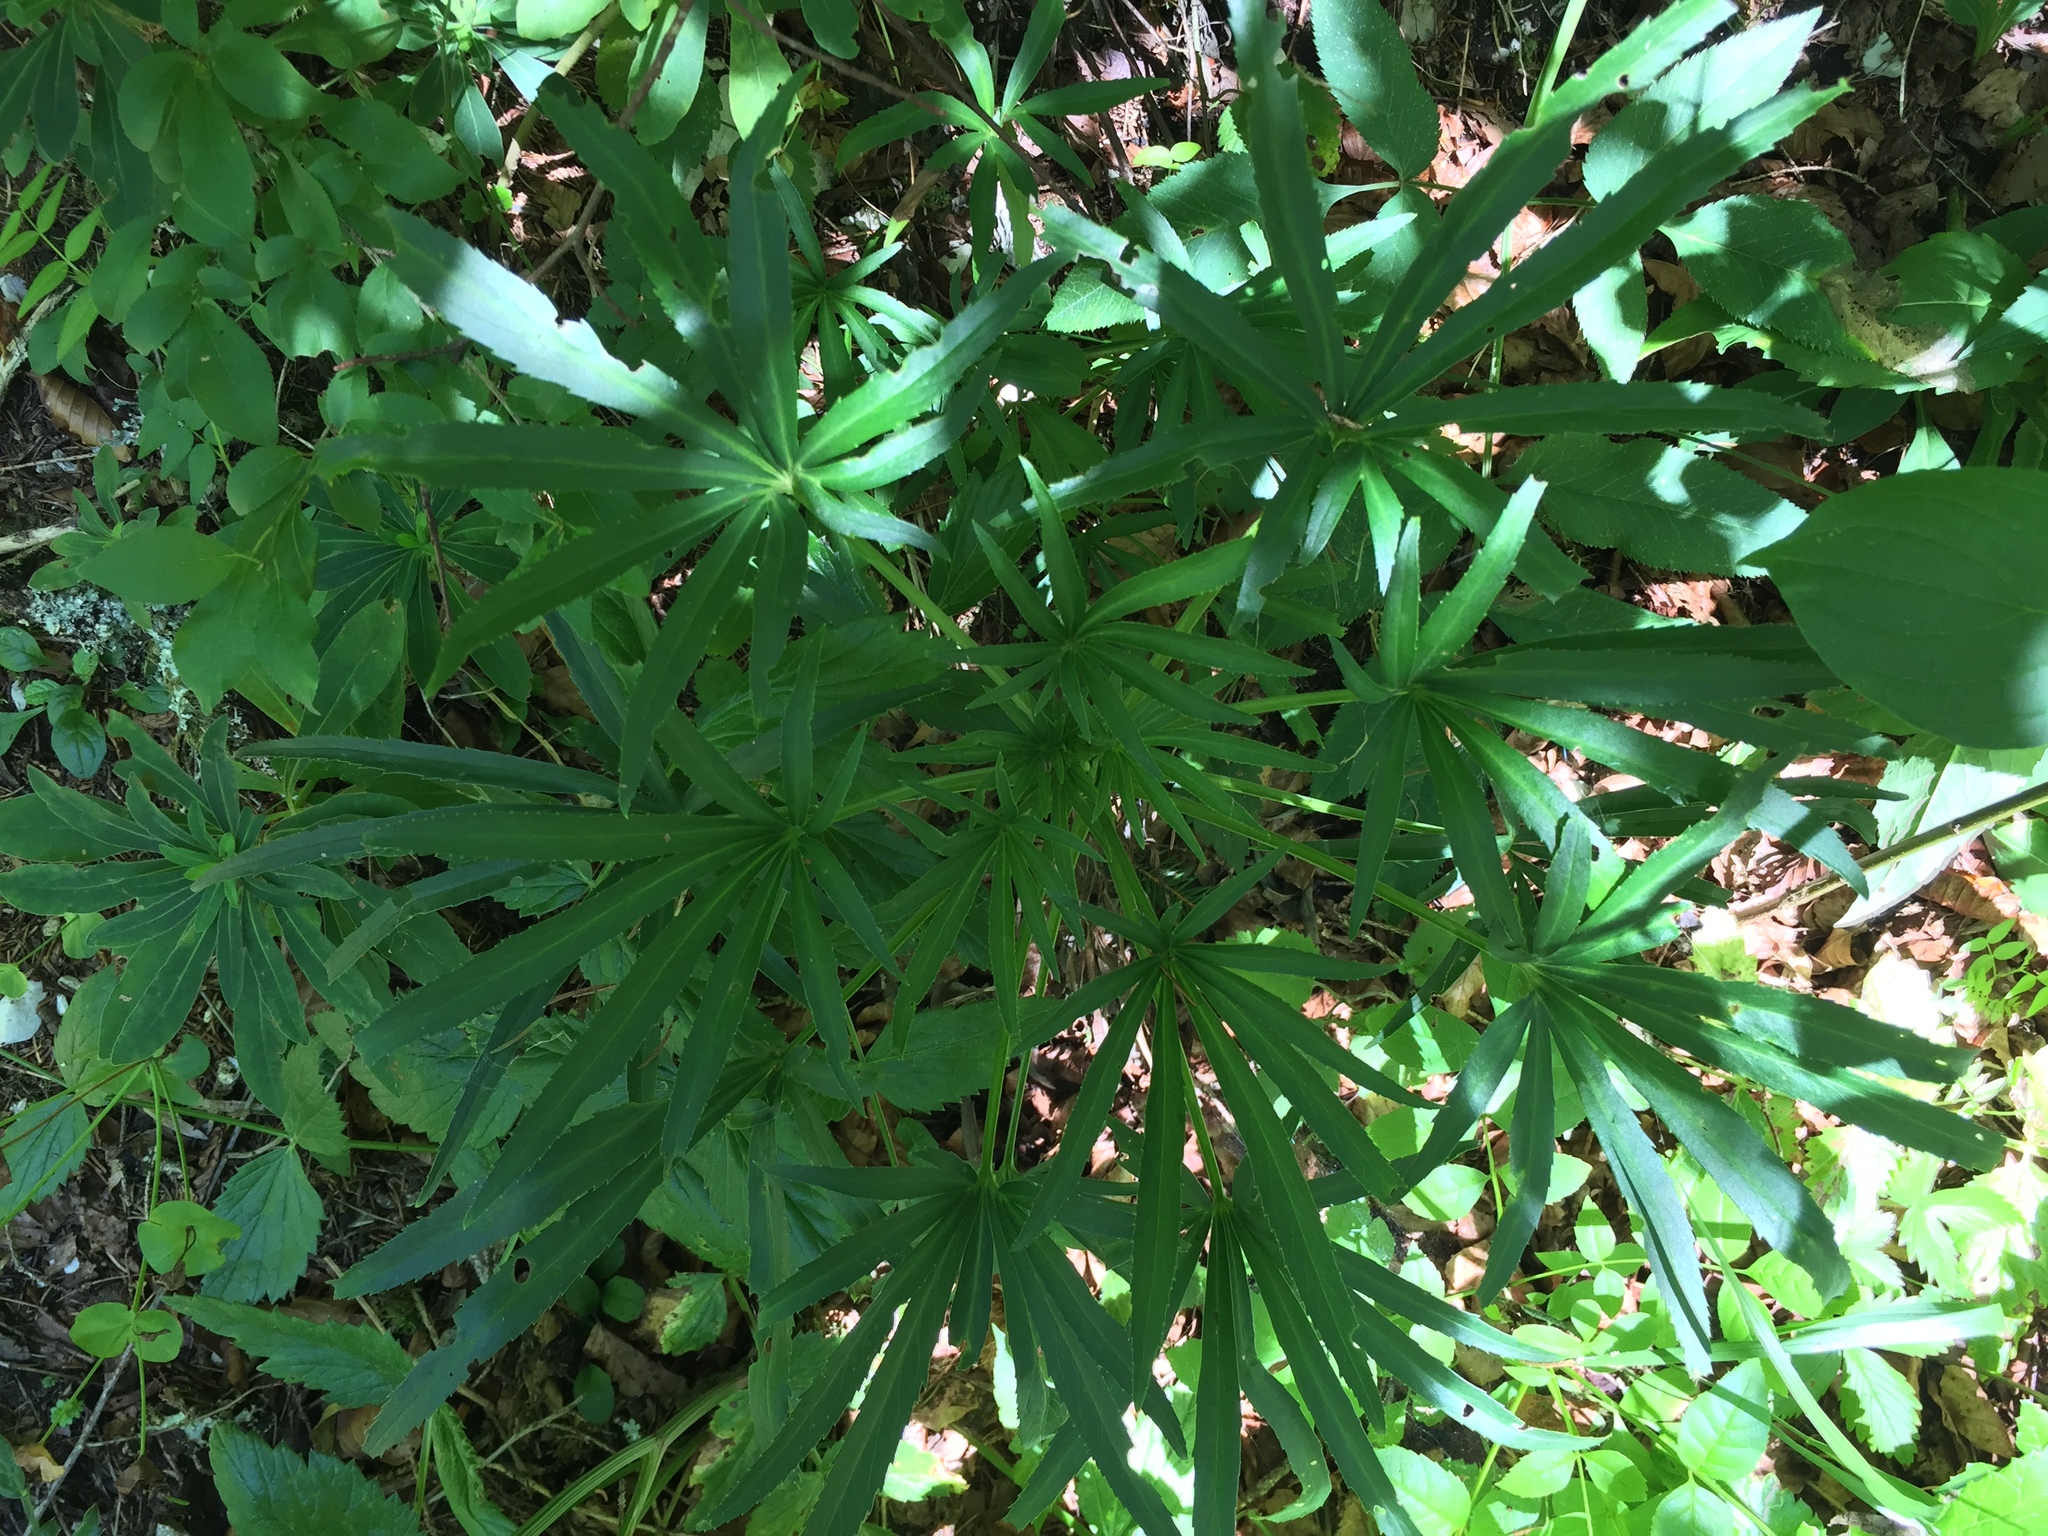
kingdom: Plantae
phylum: Tracheophyta
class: Magnoliopsida
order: Ranunculales
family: Ranunculaceae
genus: Helleborus
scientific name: Helleborus foetidus
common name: Stinking hellebore
